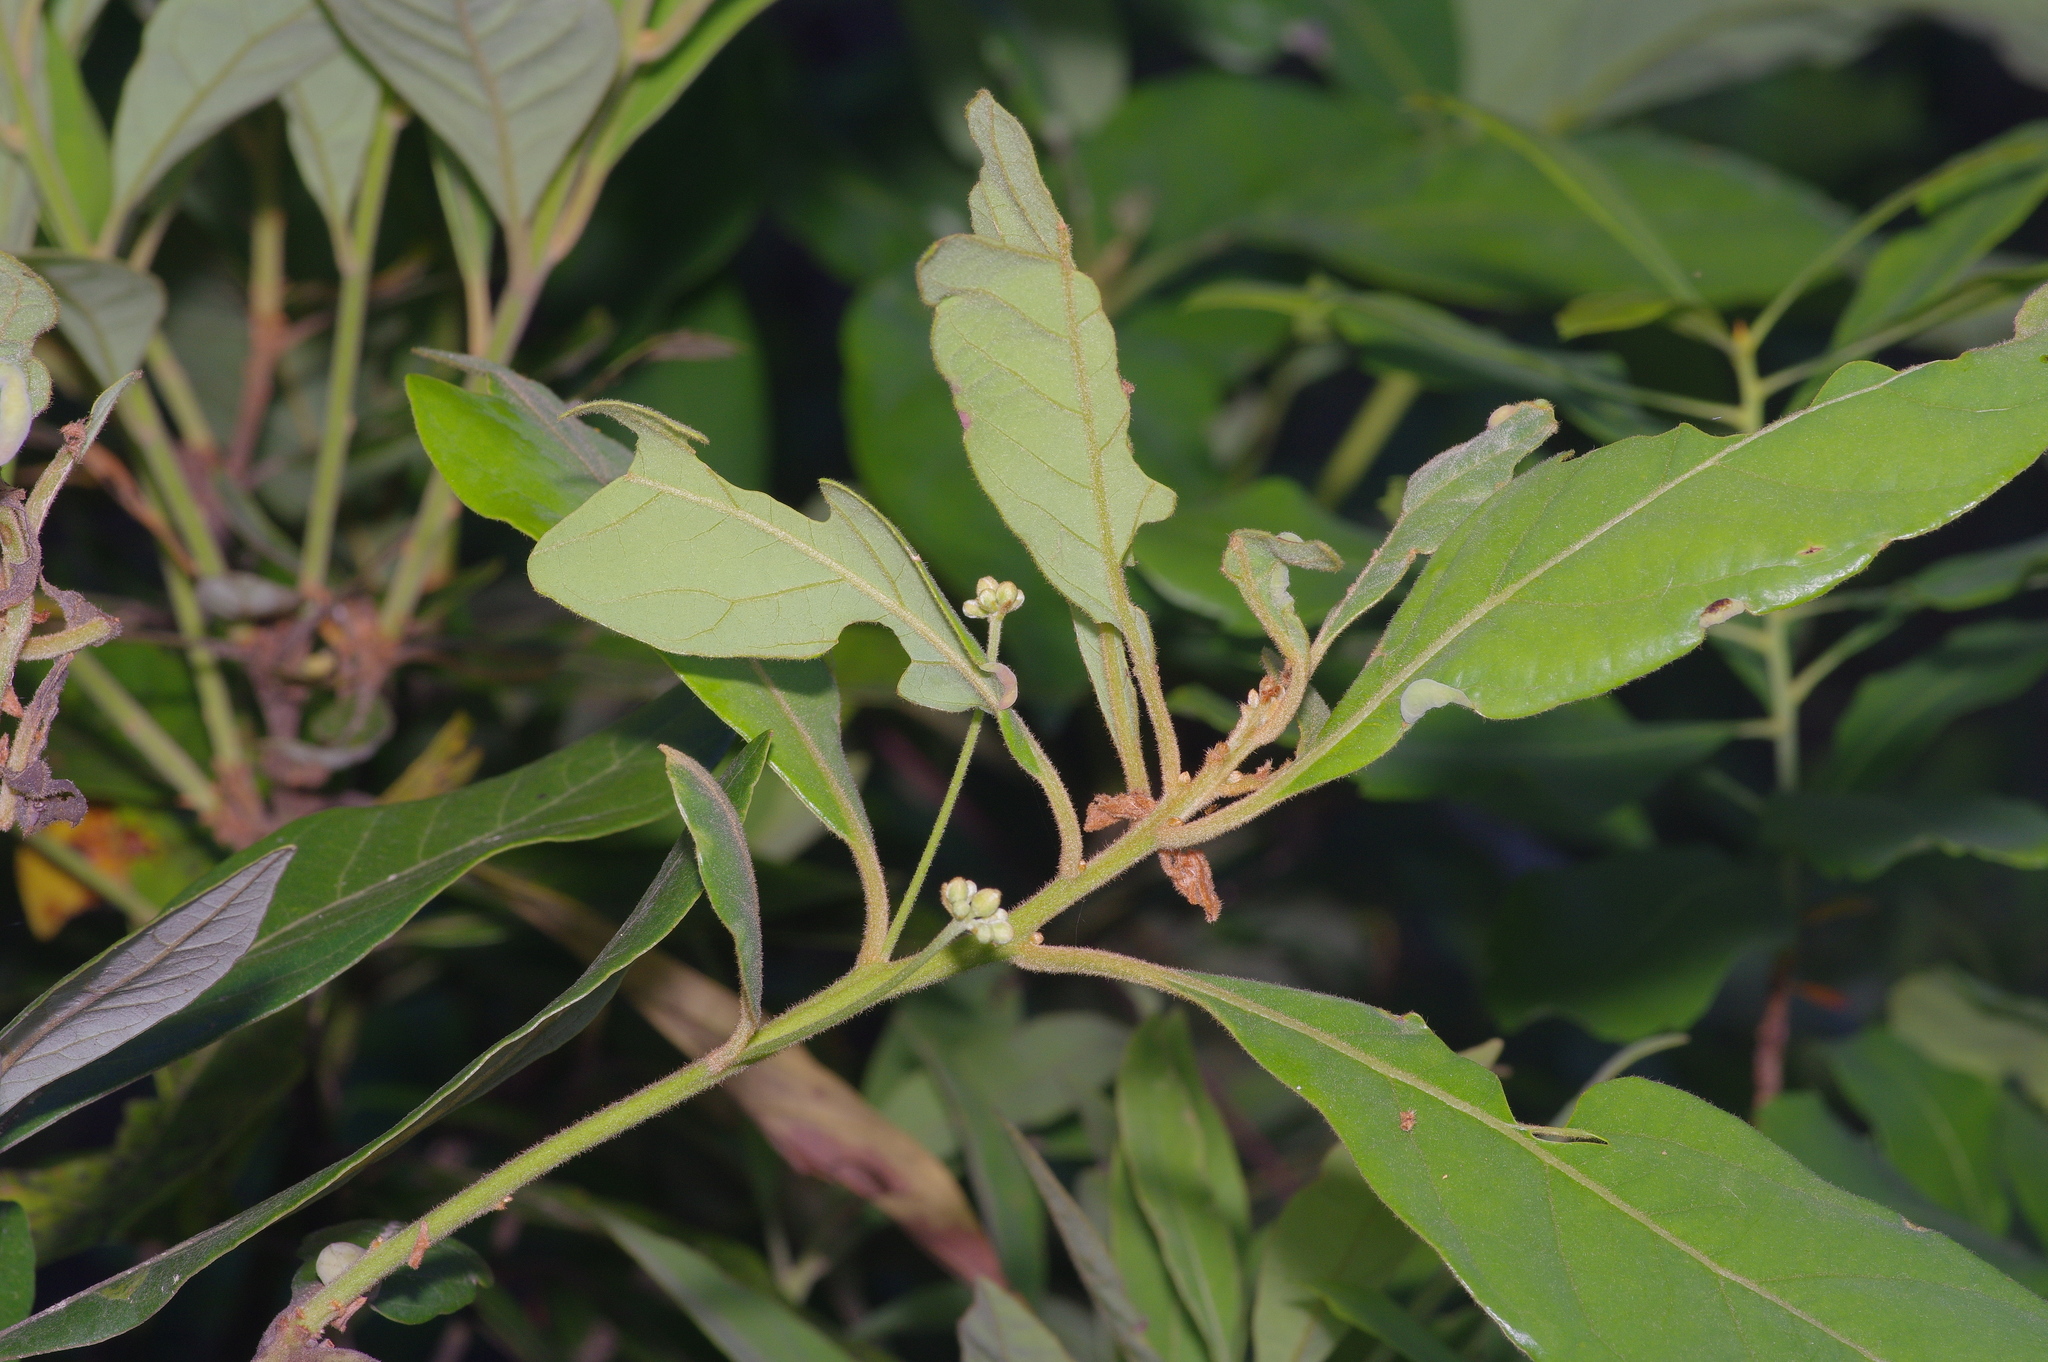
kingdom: Plantae
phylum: Tracheophyta
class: Magnoliopsida
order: Laurales
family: Lauraceae
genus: Persea
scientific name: Persea palustris
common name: Swampbay
